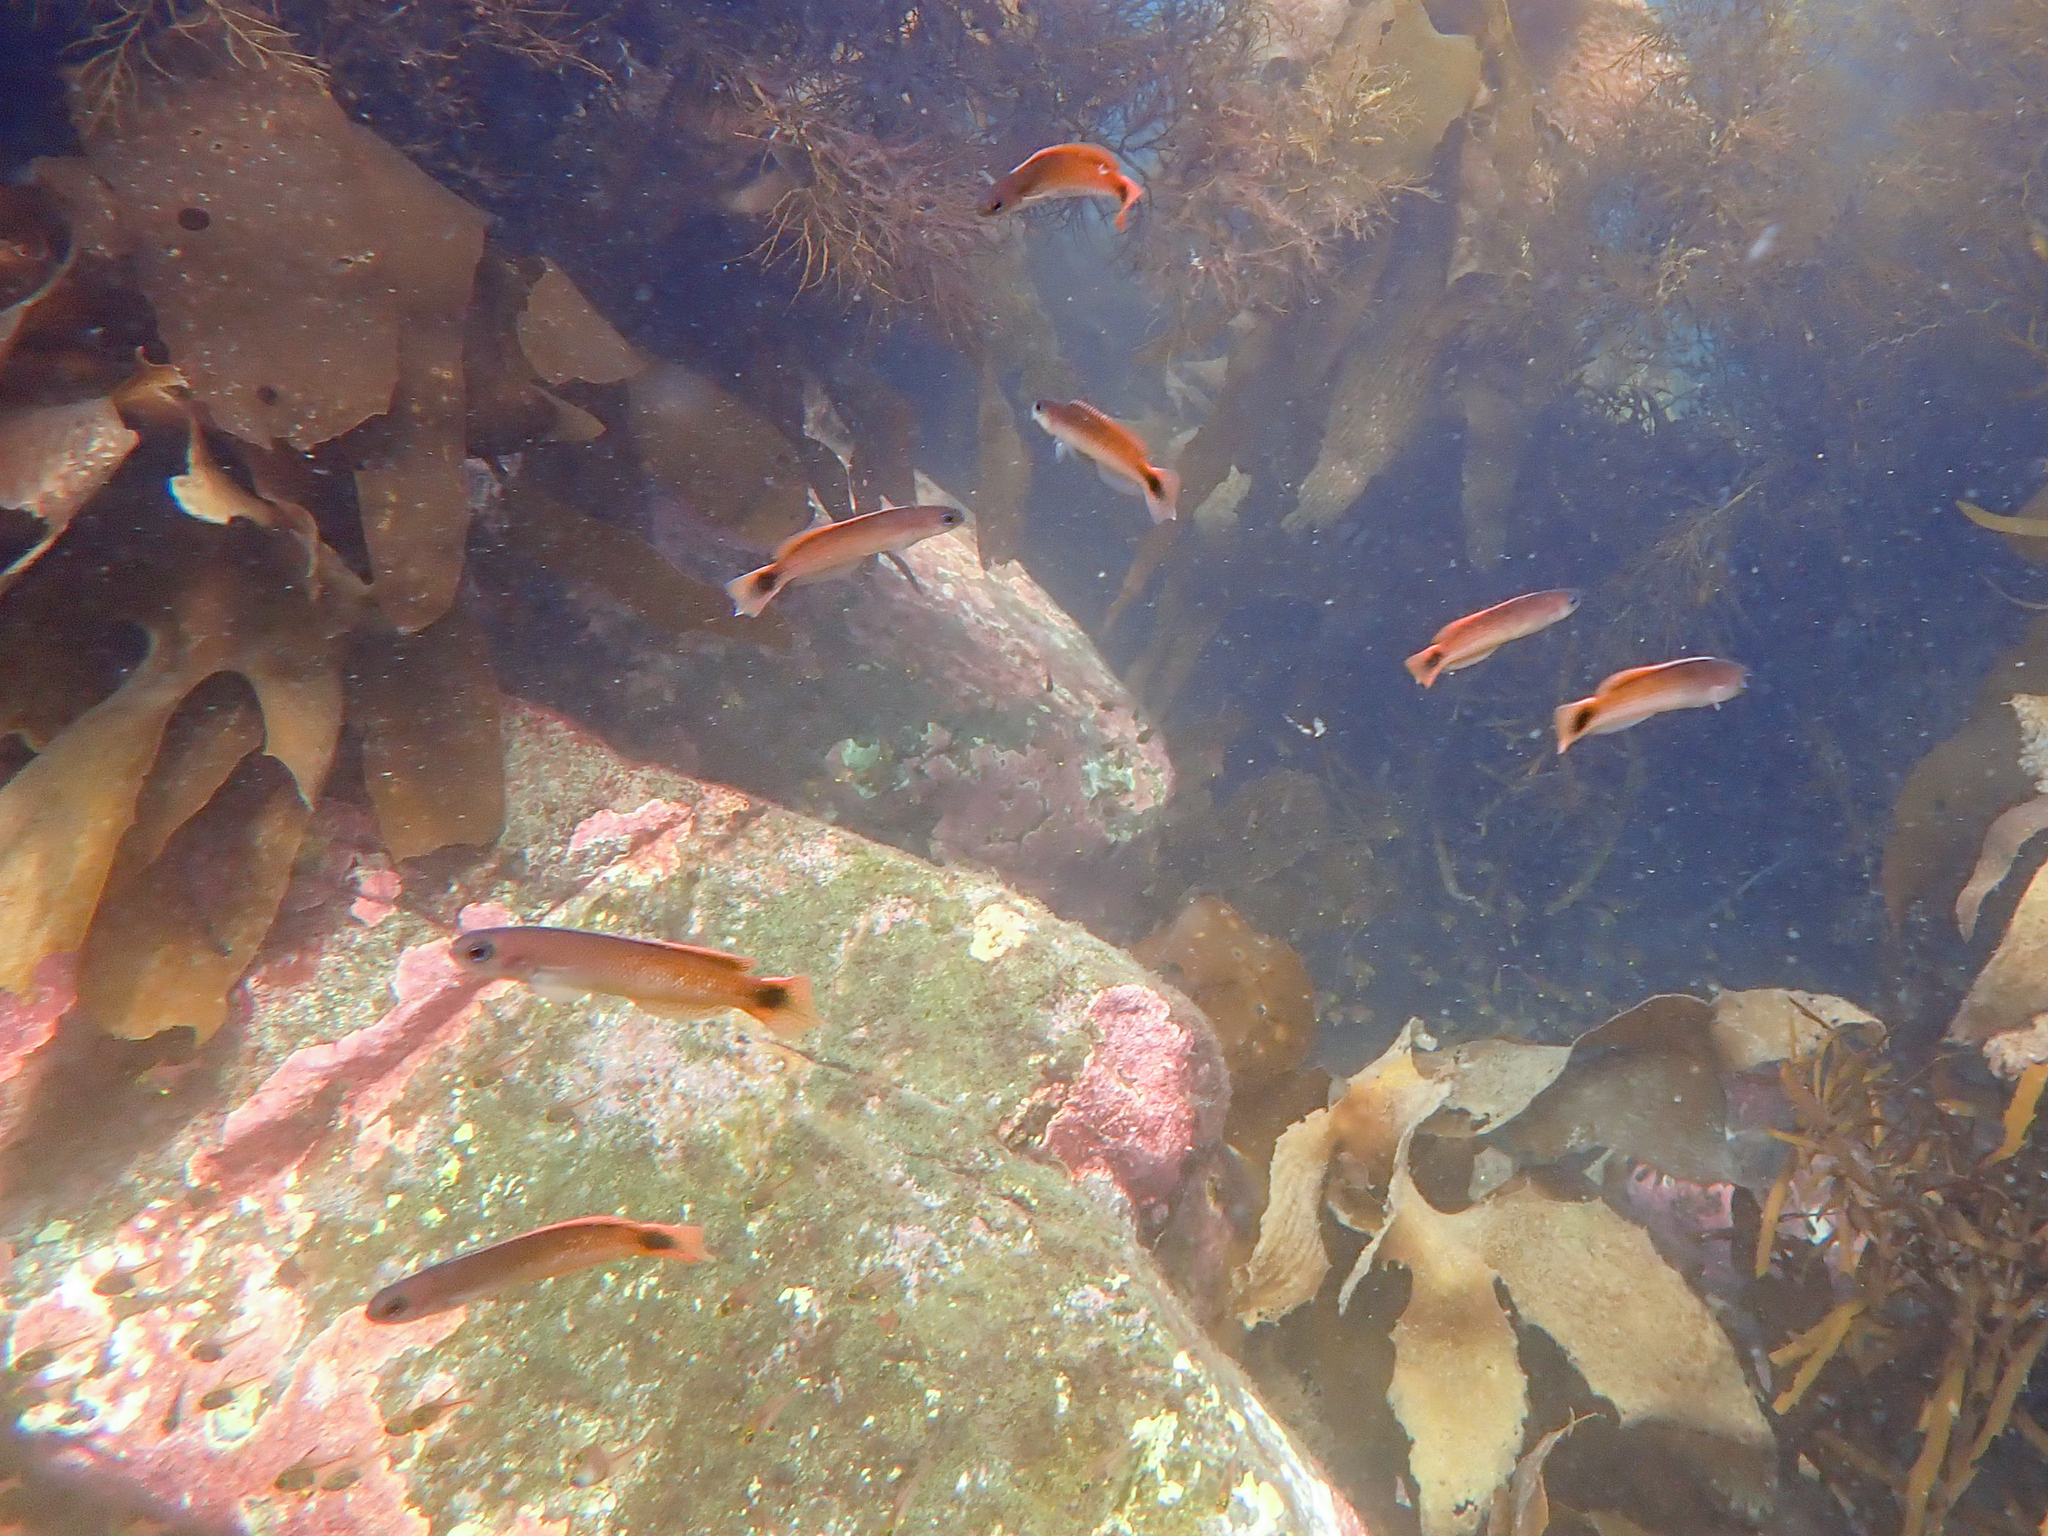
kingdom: Animalia
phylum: Chordata
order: Perciformes
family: Plesiopidae
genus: Trachinops
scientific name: Trachinops caudimaculatus
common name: Blotched-tailed trachinops
